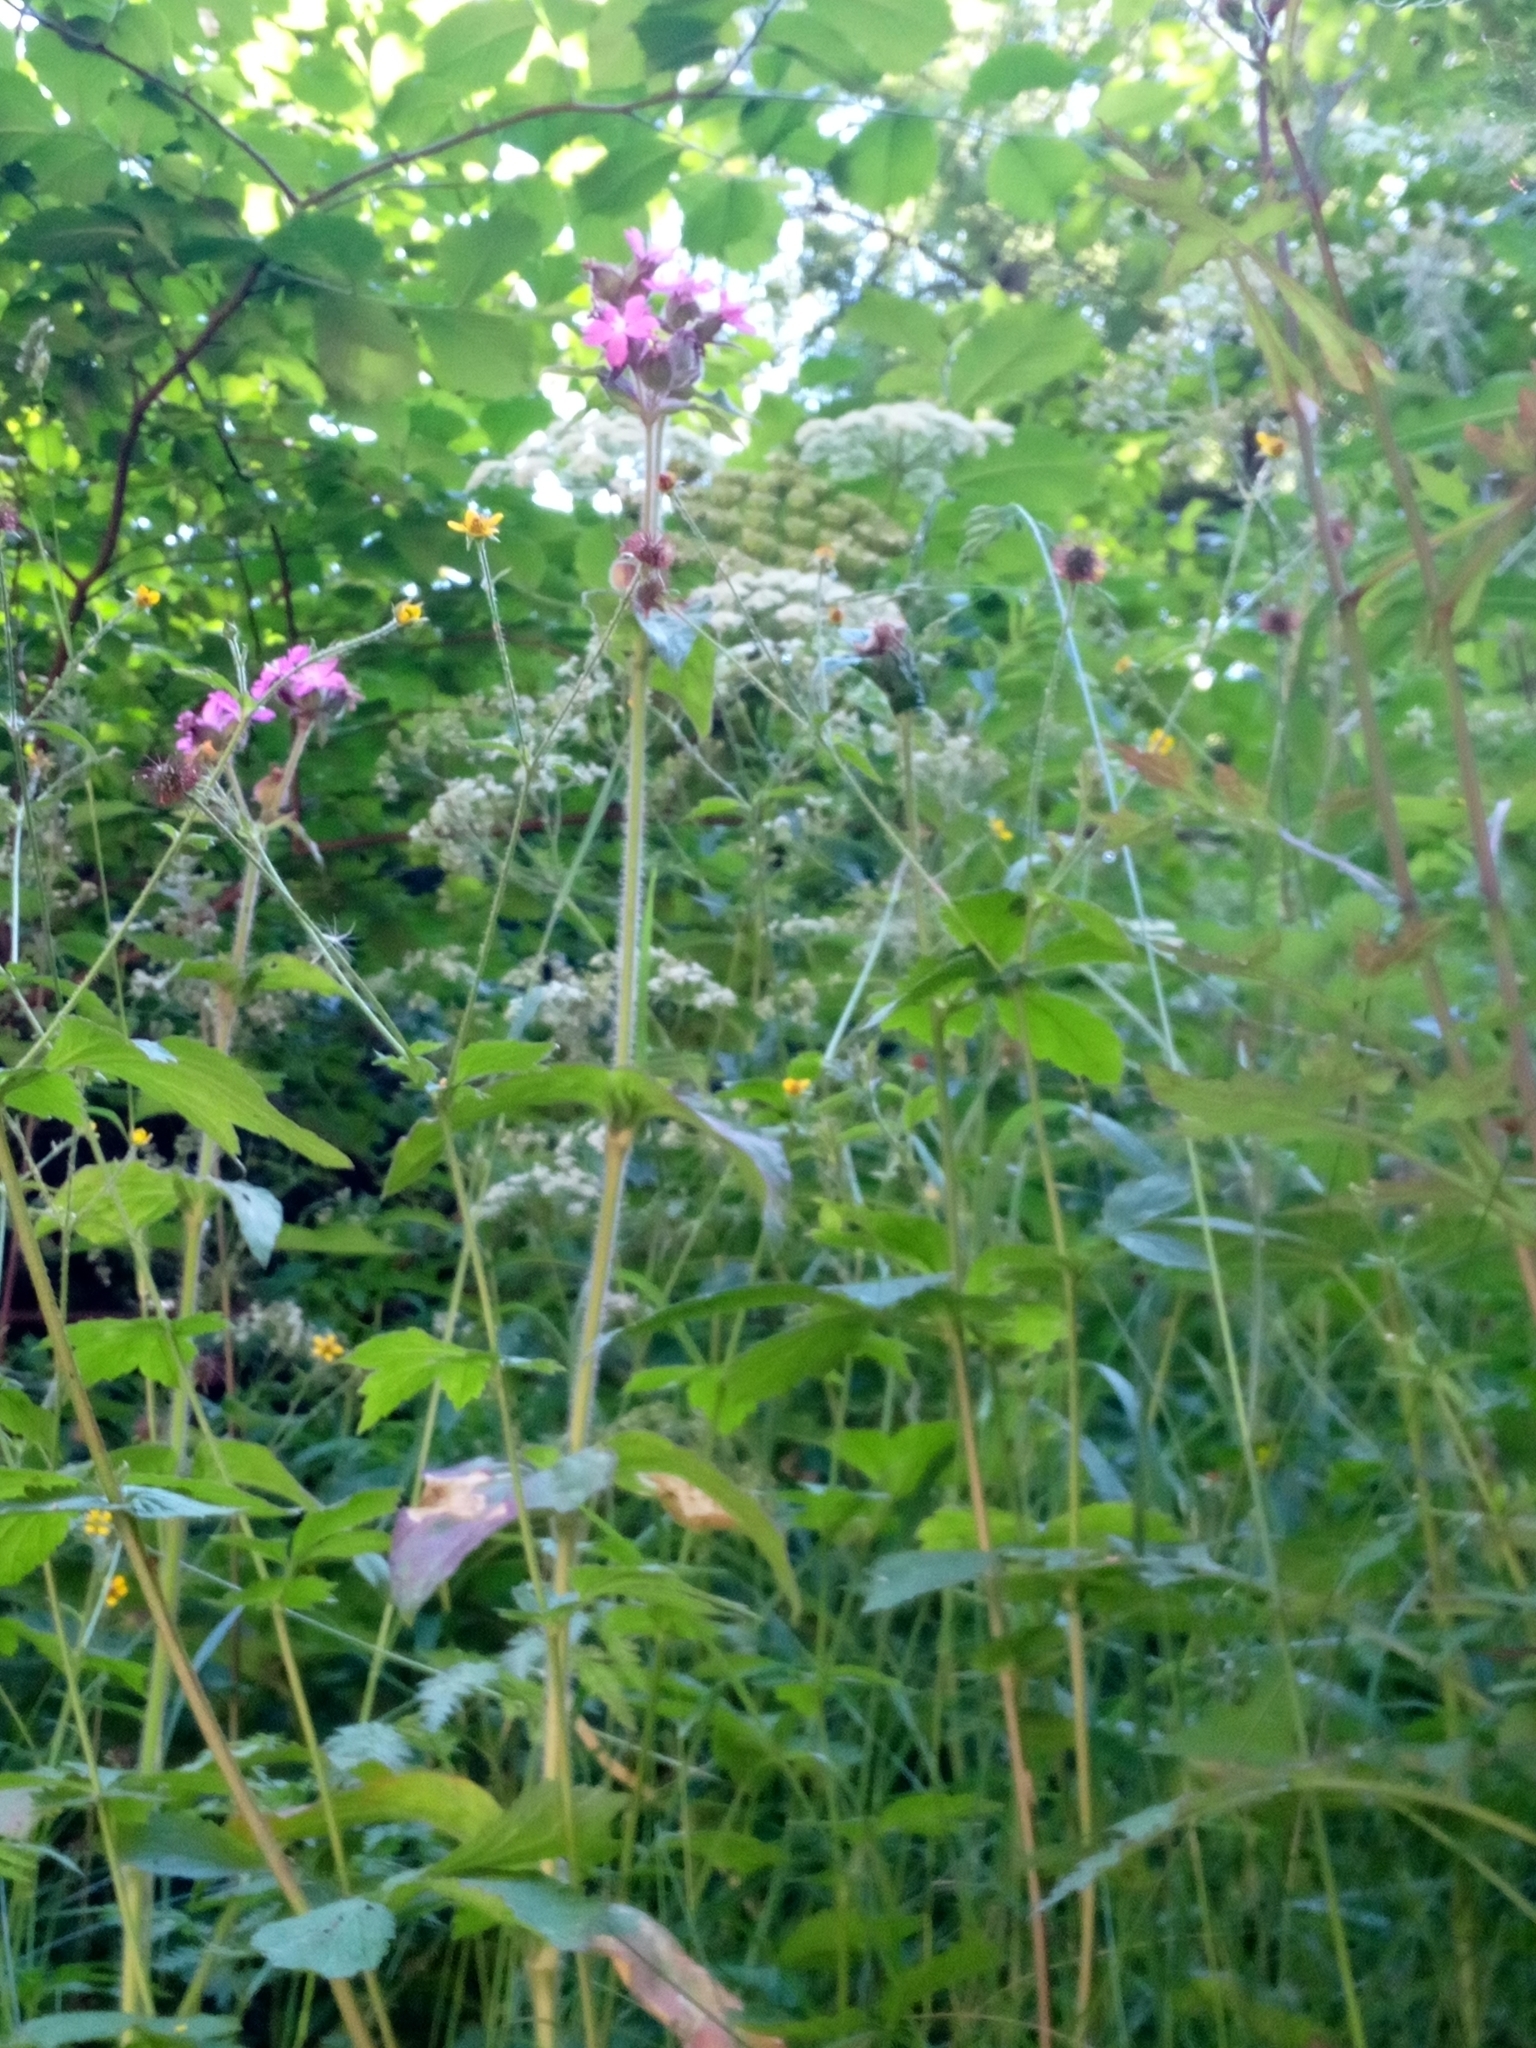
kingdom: Plantae
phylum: Tracheophyta
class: Magnoliopsida
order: Caryophyllales
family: Caryophyllaceae
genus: Silene
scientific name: Silene dioica
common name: Red campion
